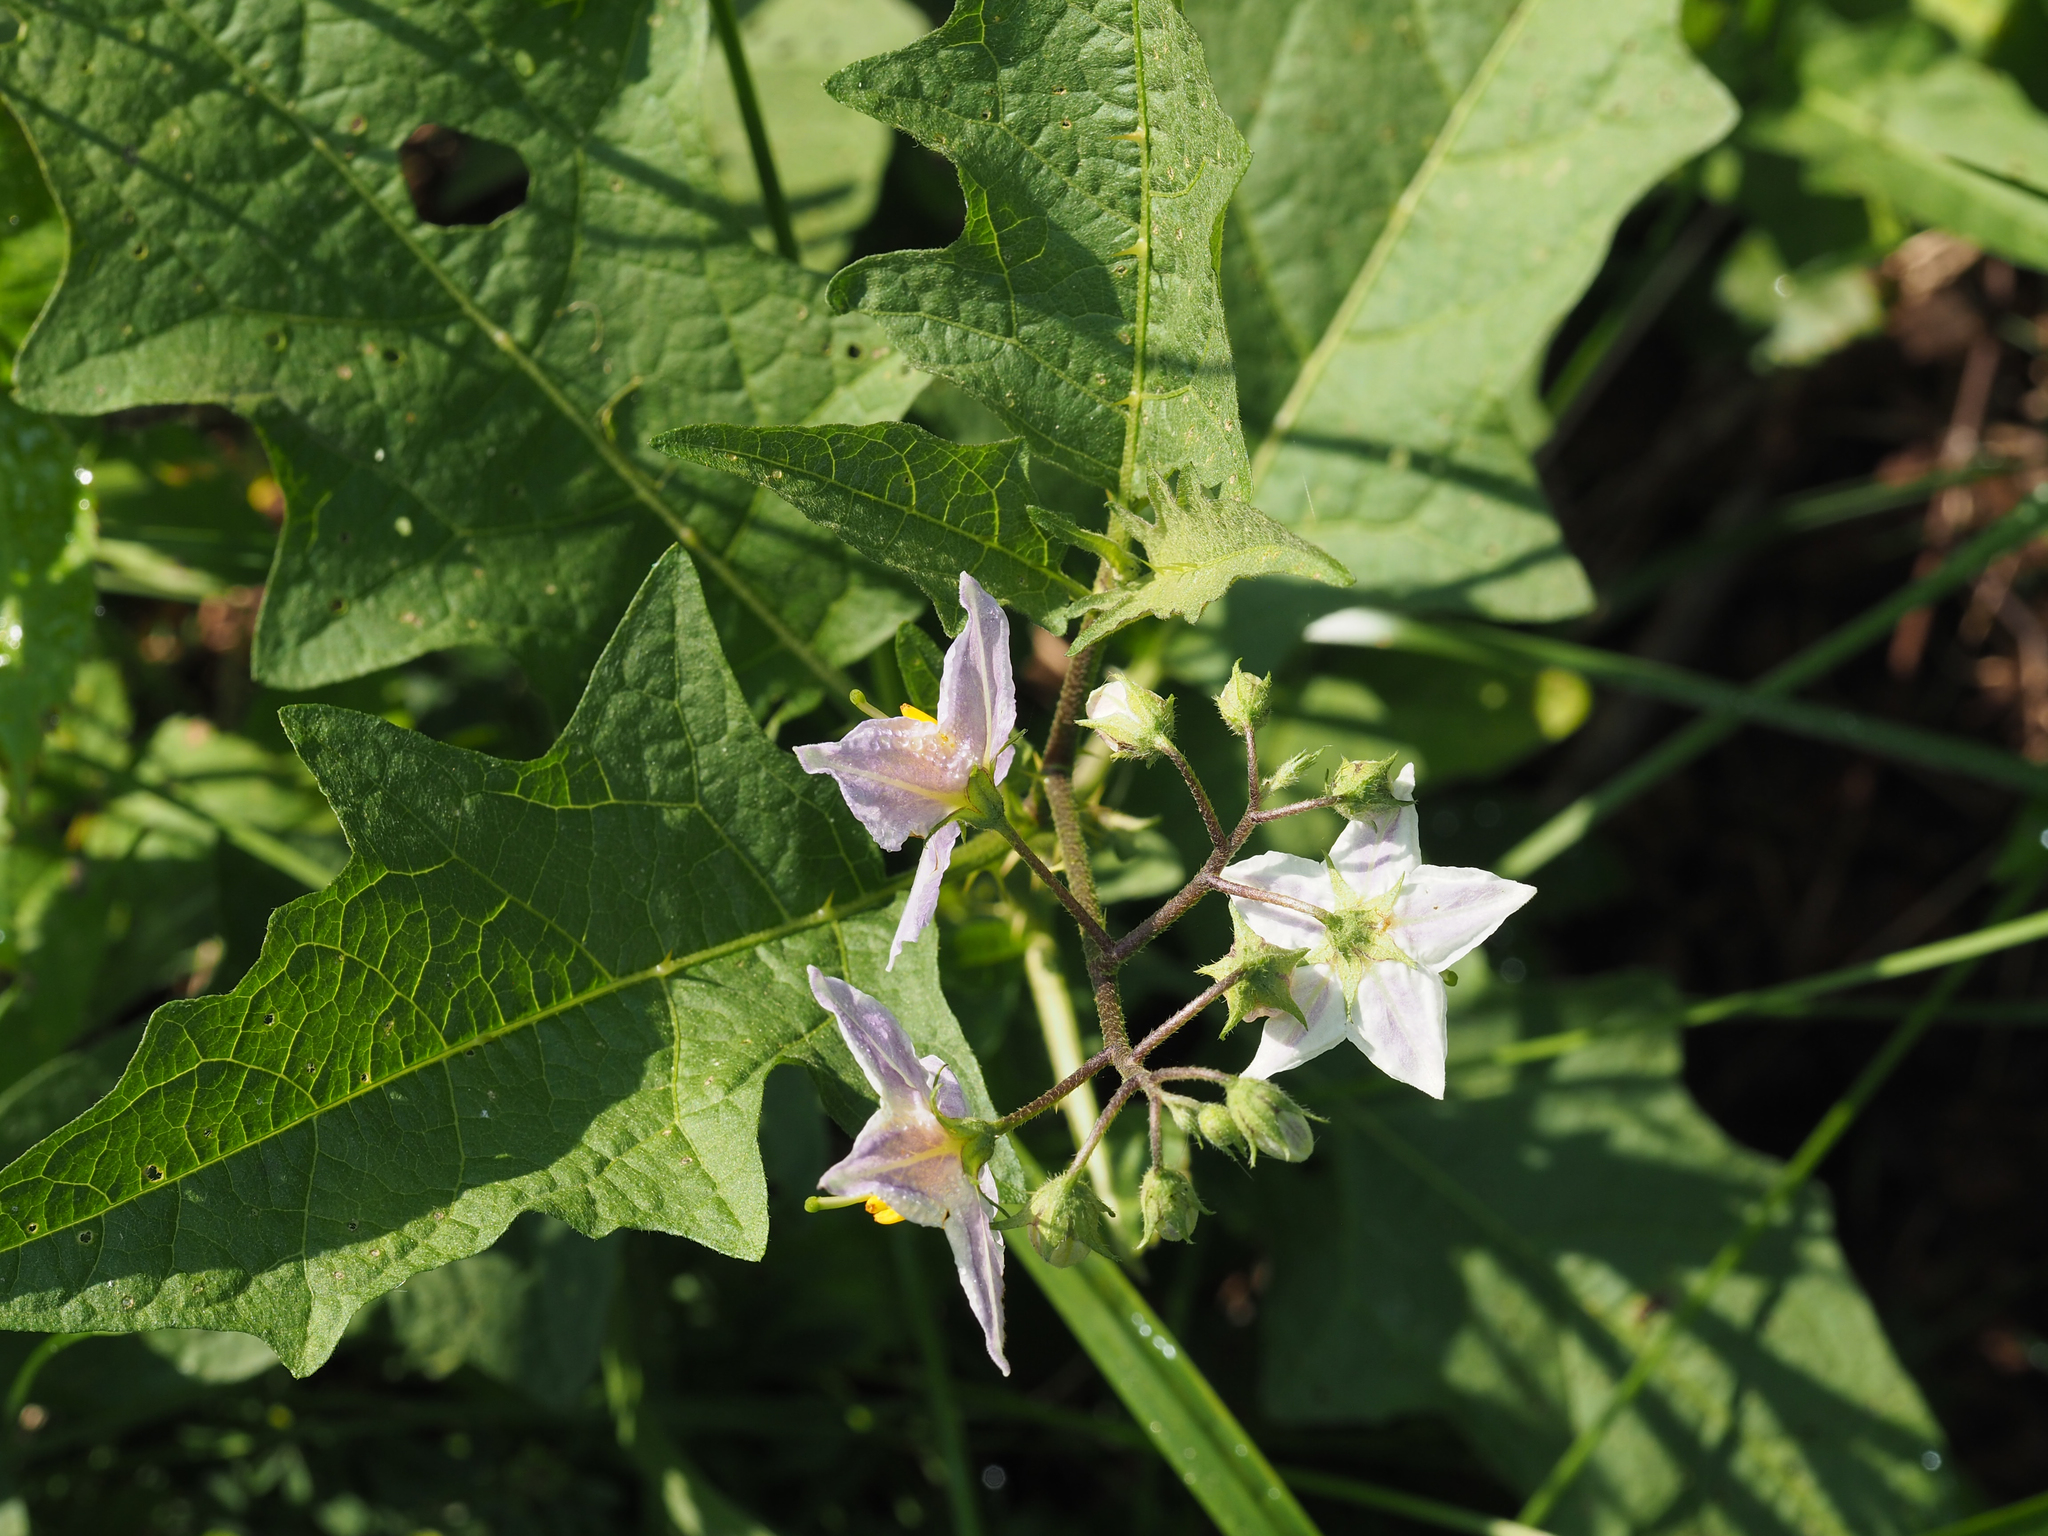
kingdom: Plantae
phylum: Tracheophyta
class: Magnoliopsida
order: Solanales
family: Solanaceae
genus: Solanum
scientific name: Solanum carolinense
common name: Horse-nettle
